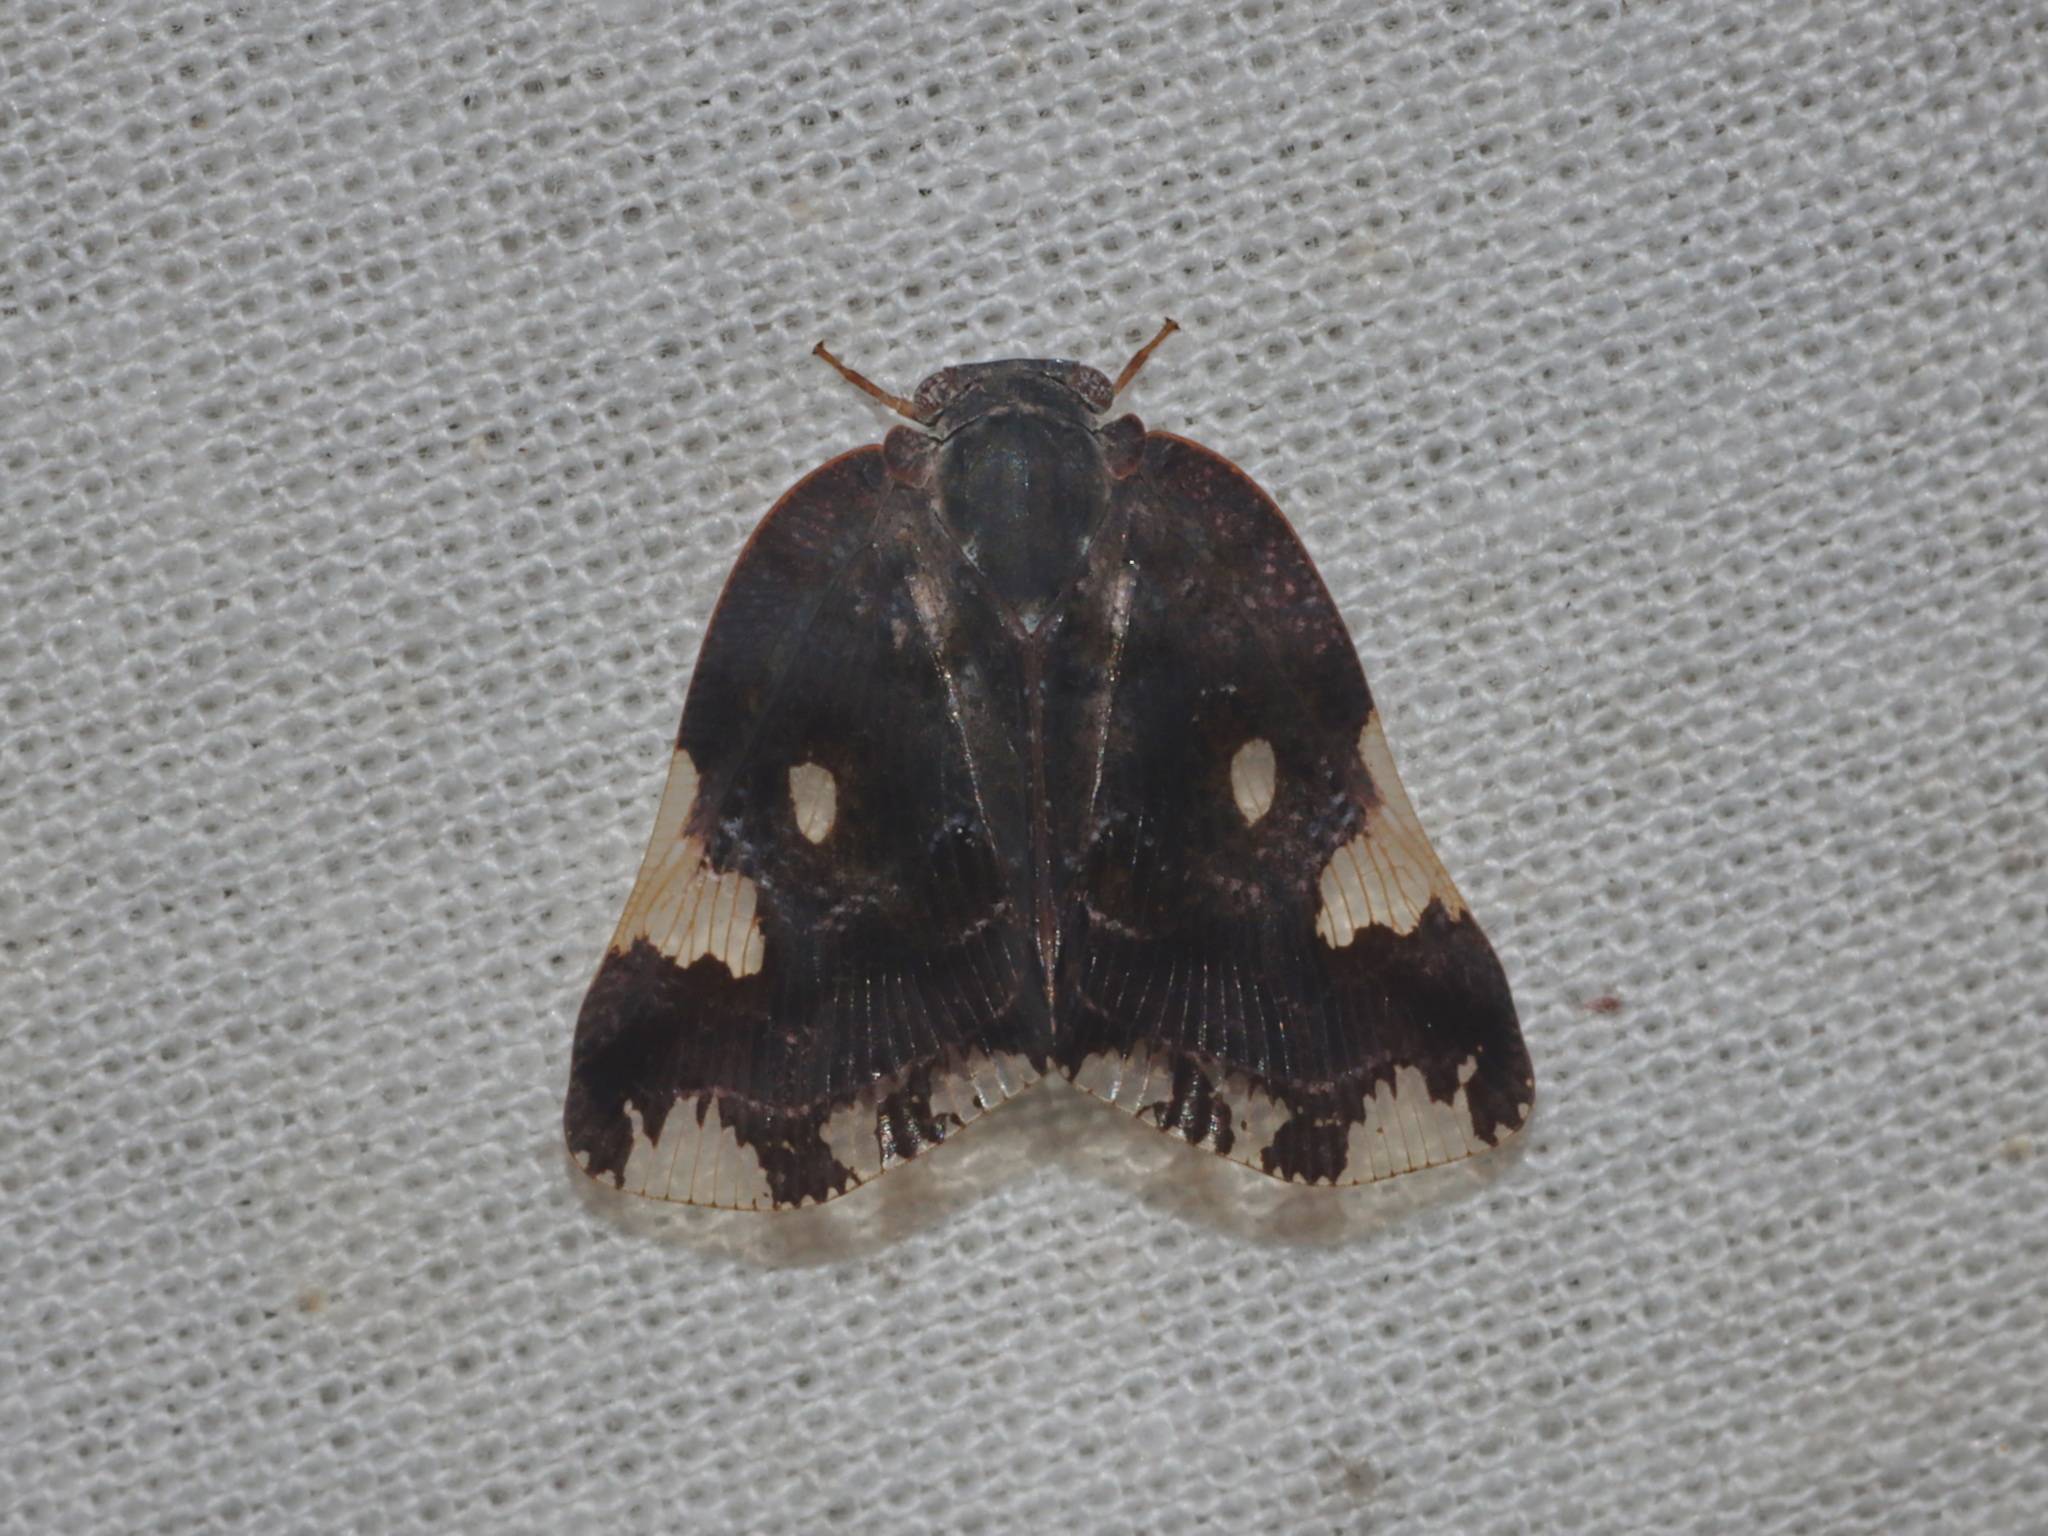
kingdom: Animalia
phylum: Arthropoda
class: Insecta
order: Hemiptera
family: Ricaniidae
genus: Ricania
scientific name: Ricania speculum
